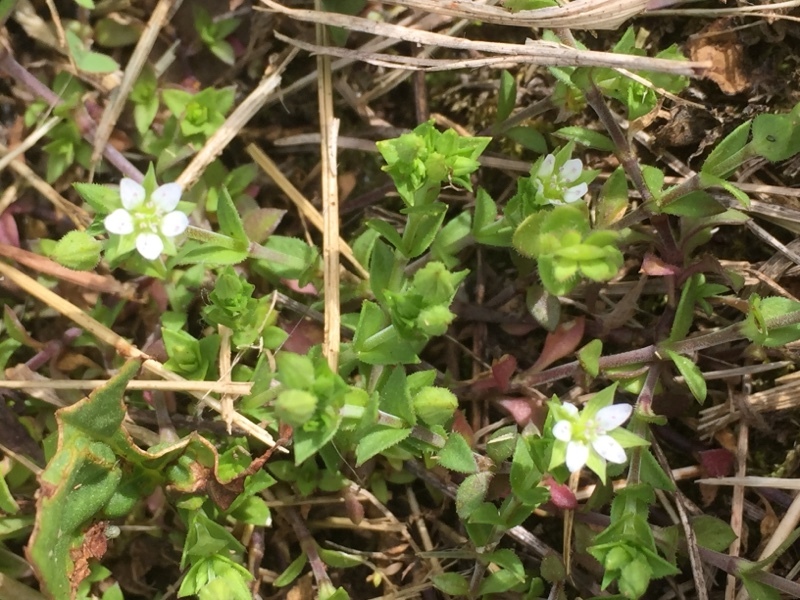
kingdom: Plantae
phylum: Tracheophyta
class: Magnoliopsida
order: Caryophyllales
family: Caryophyllaceae
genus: Arenaria
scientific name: Arenaria serpyllifolia
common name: Thyme-leaved sandwort
